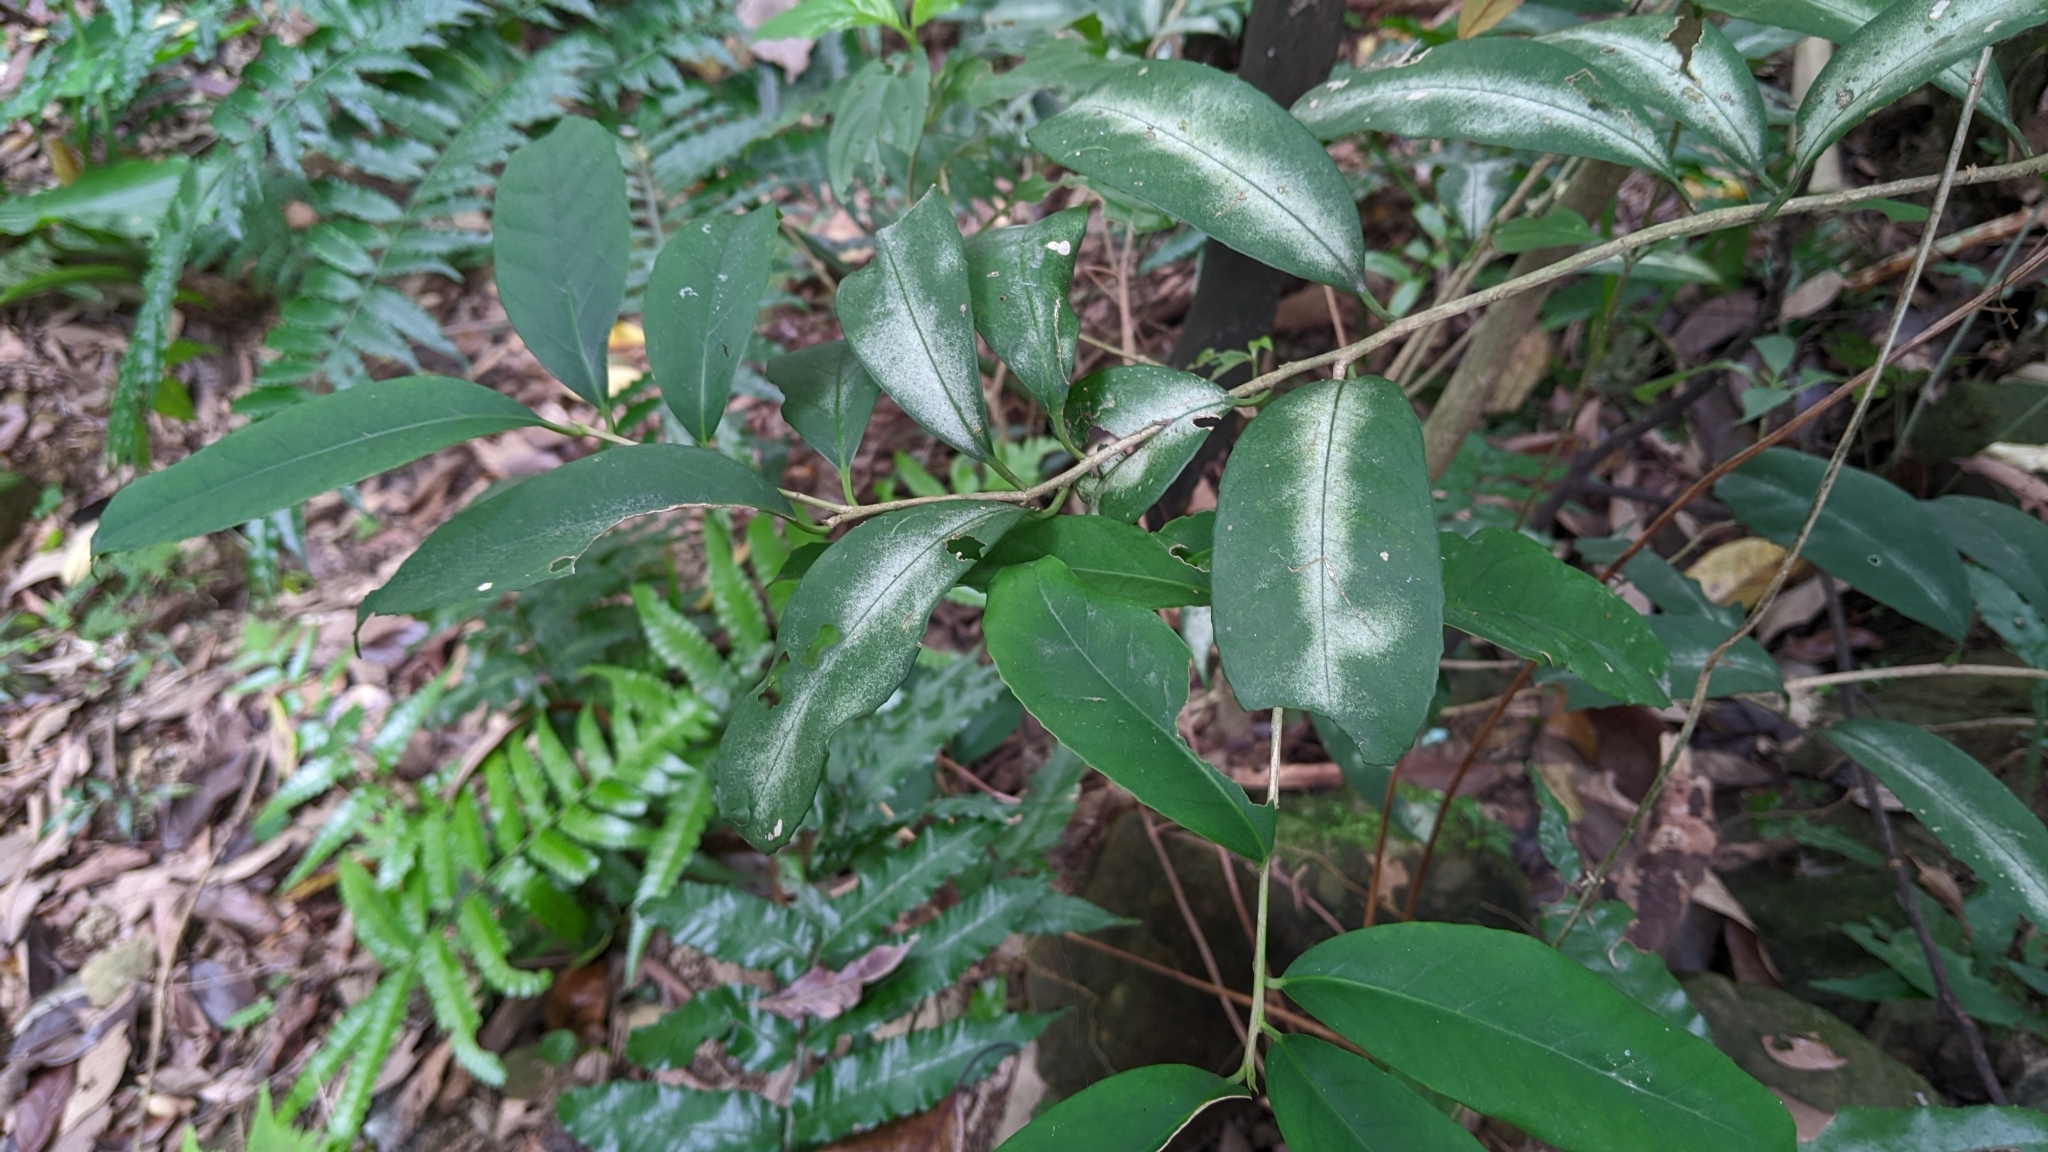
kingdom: Plantae
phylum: Tracheophyta
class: Magnoliopsida
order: Aquifoliales
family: Aquifoliaceae
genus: Ilex
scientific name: Ilex formosana
